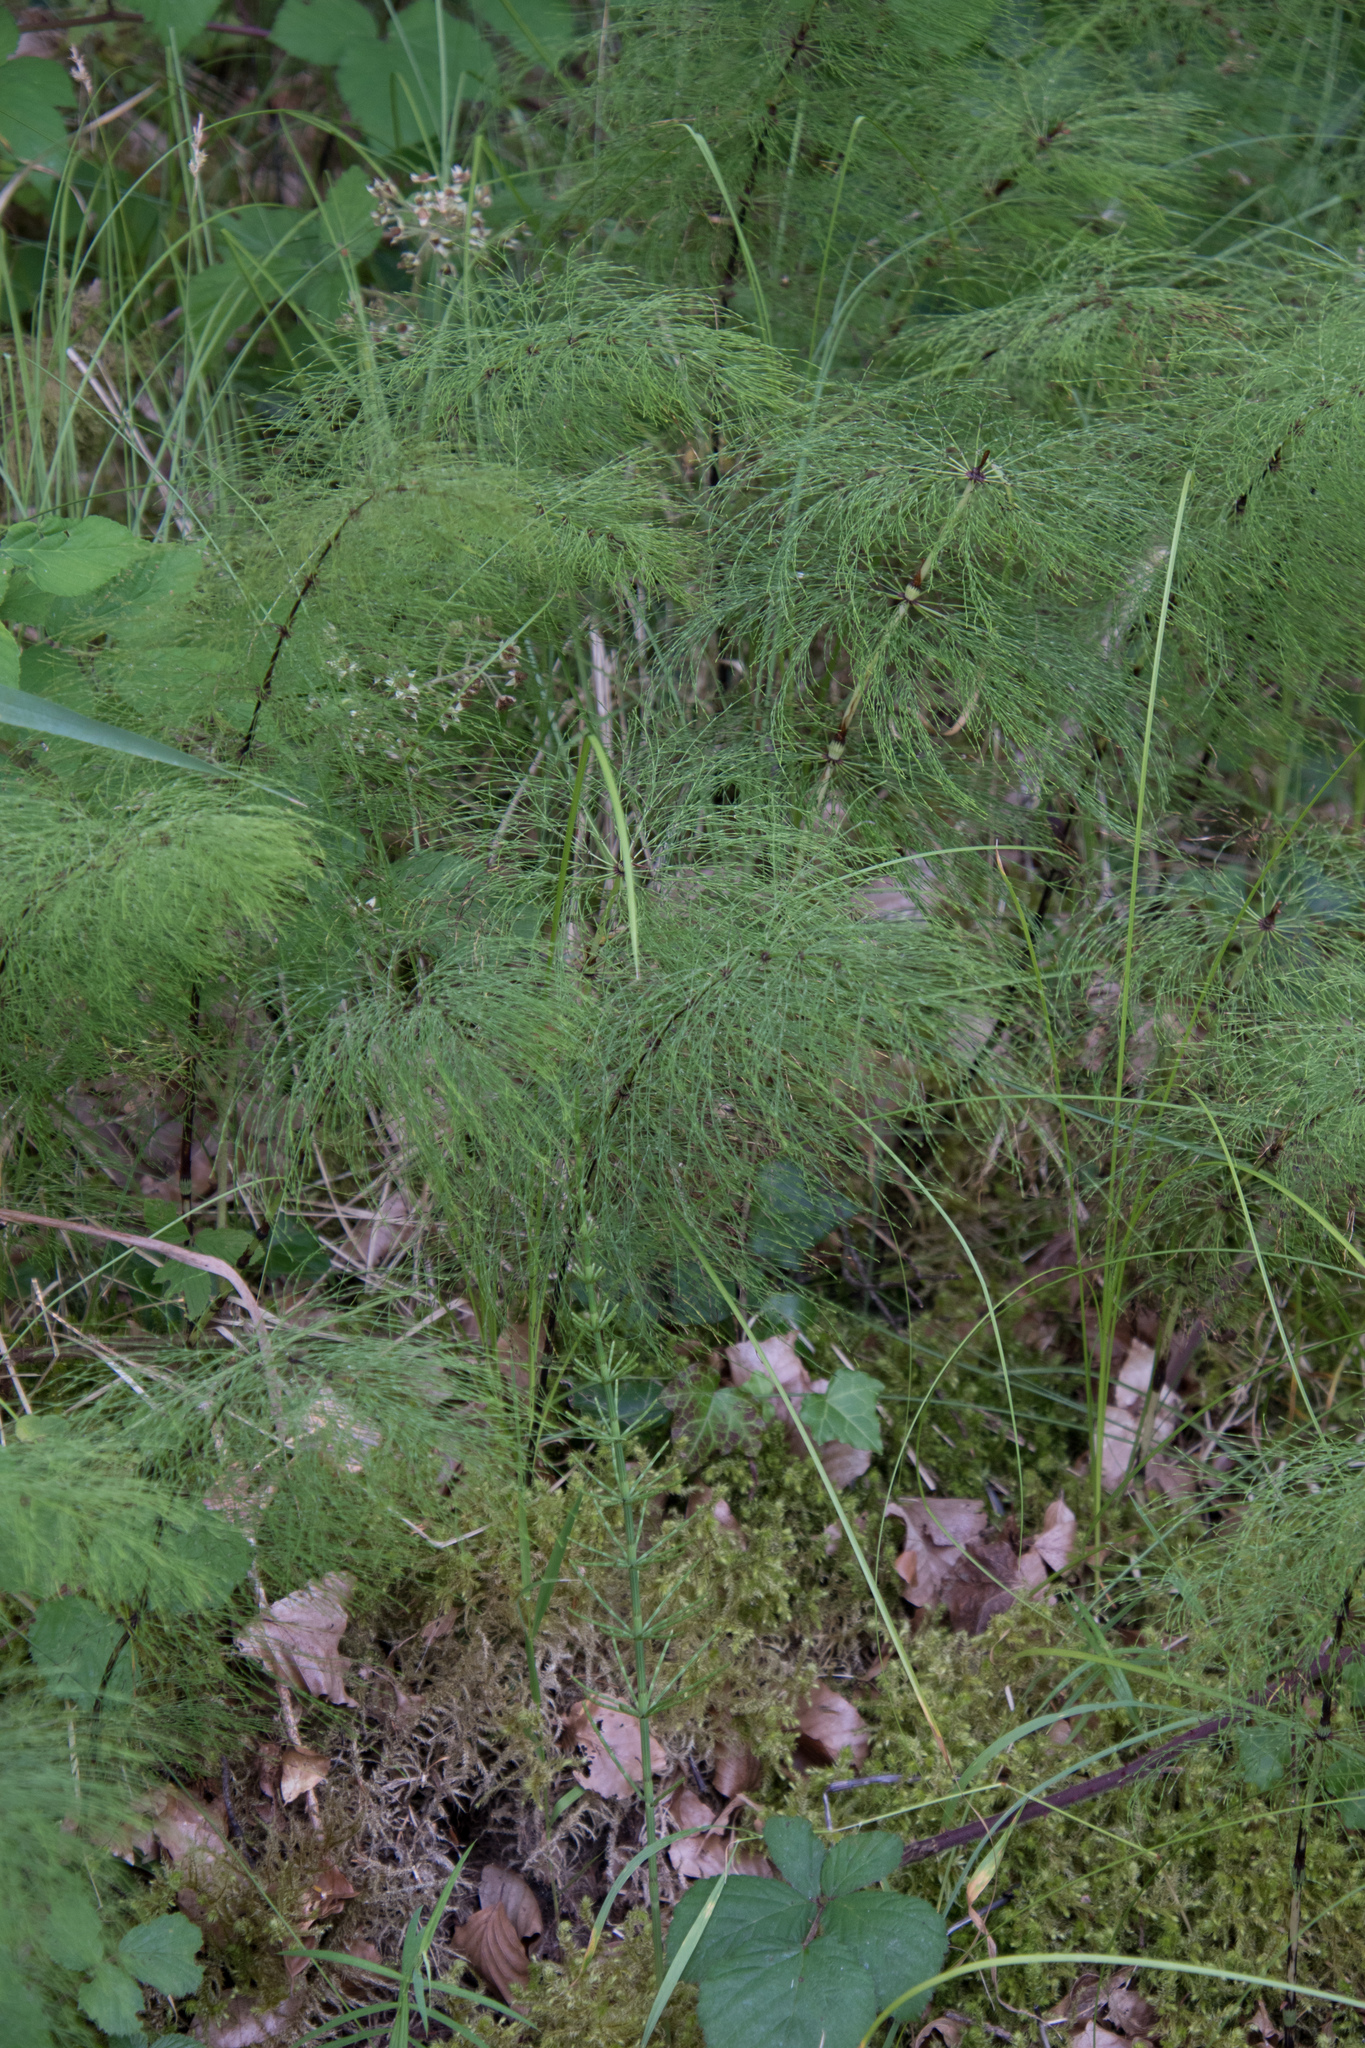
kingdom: Plantae
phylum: Tracheophyta
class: Polypodiopsida
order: Equisetales
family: Equisetaceae
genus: Equisetum
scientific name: Equisetum sylvaticum
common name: Wood horsetail
